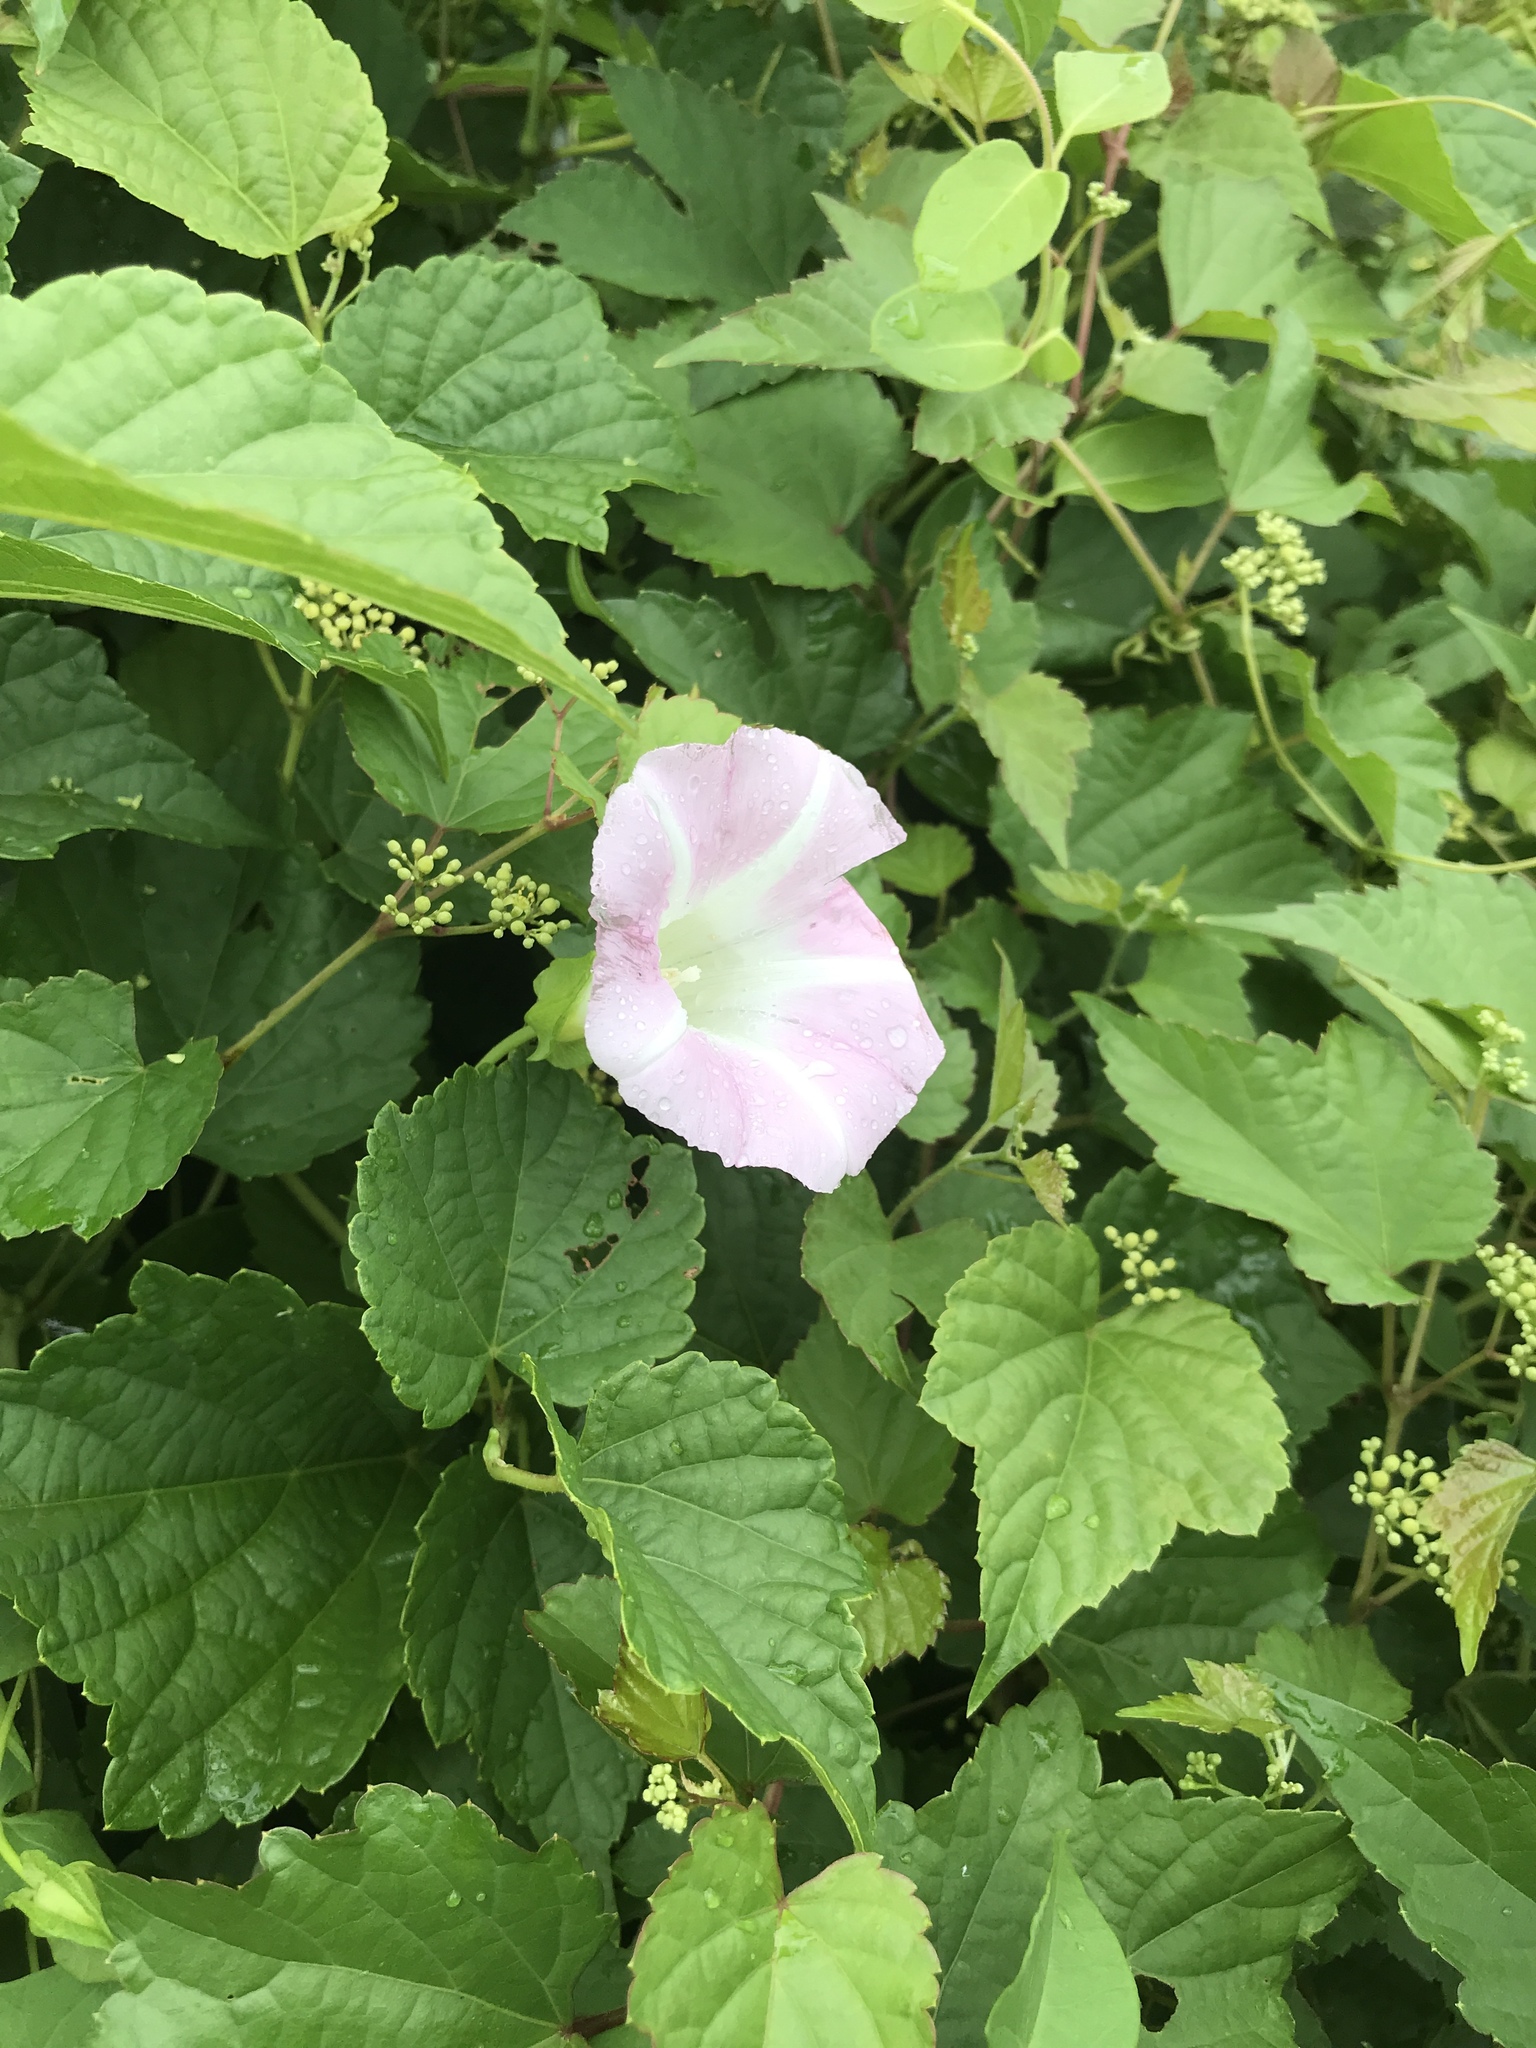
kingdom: Plantae
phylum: Tracheophyta
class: Magnoliopsida
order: Solanales
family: Convolvulaceae
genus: Calystegia
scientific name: Calystegia sepium
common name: Hedge bindweed
